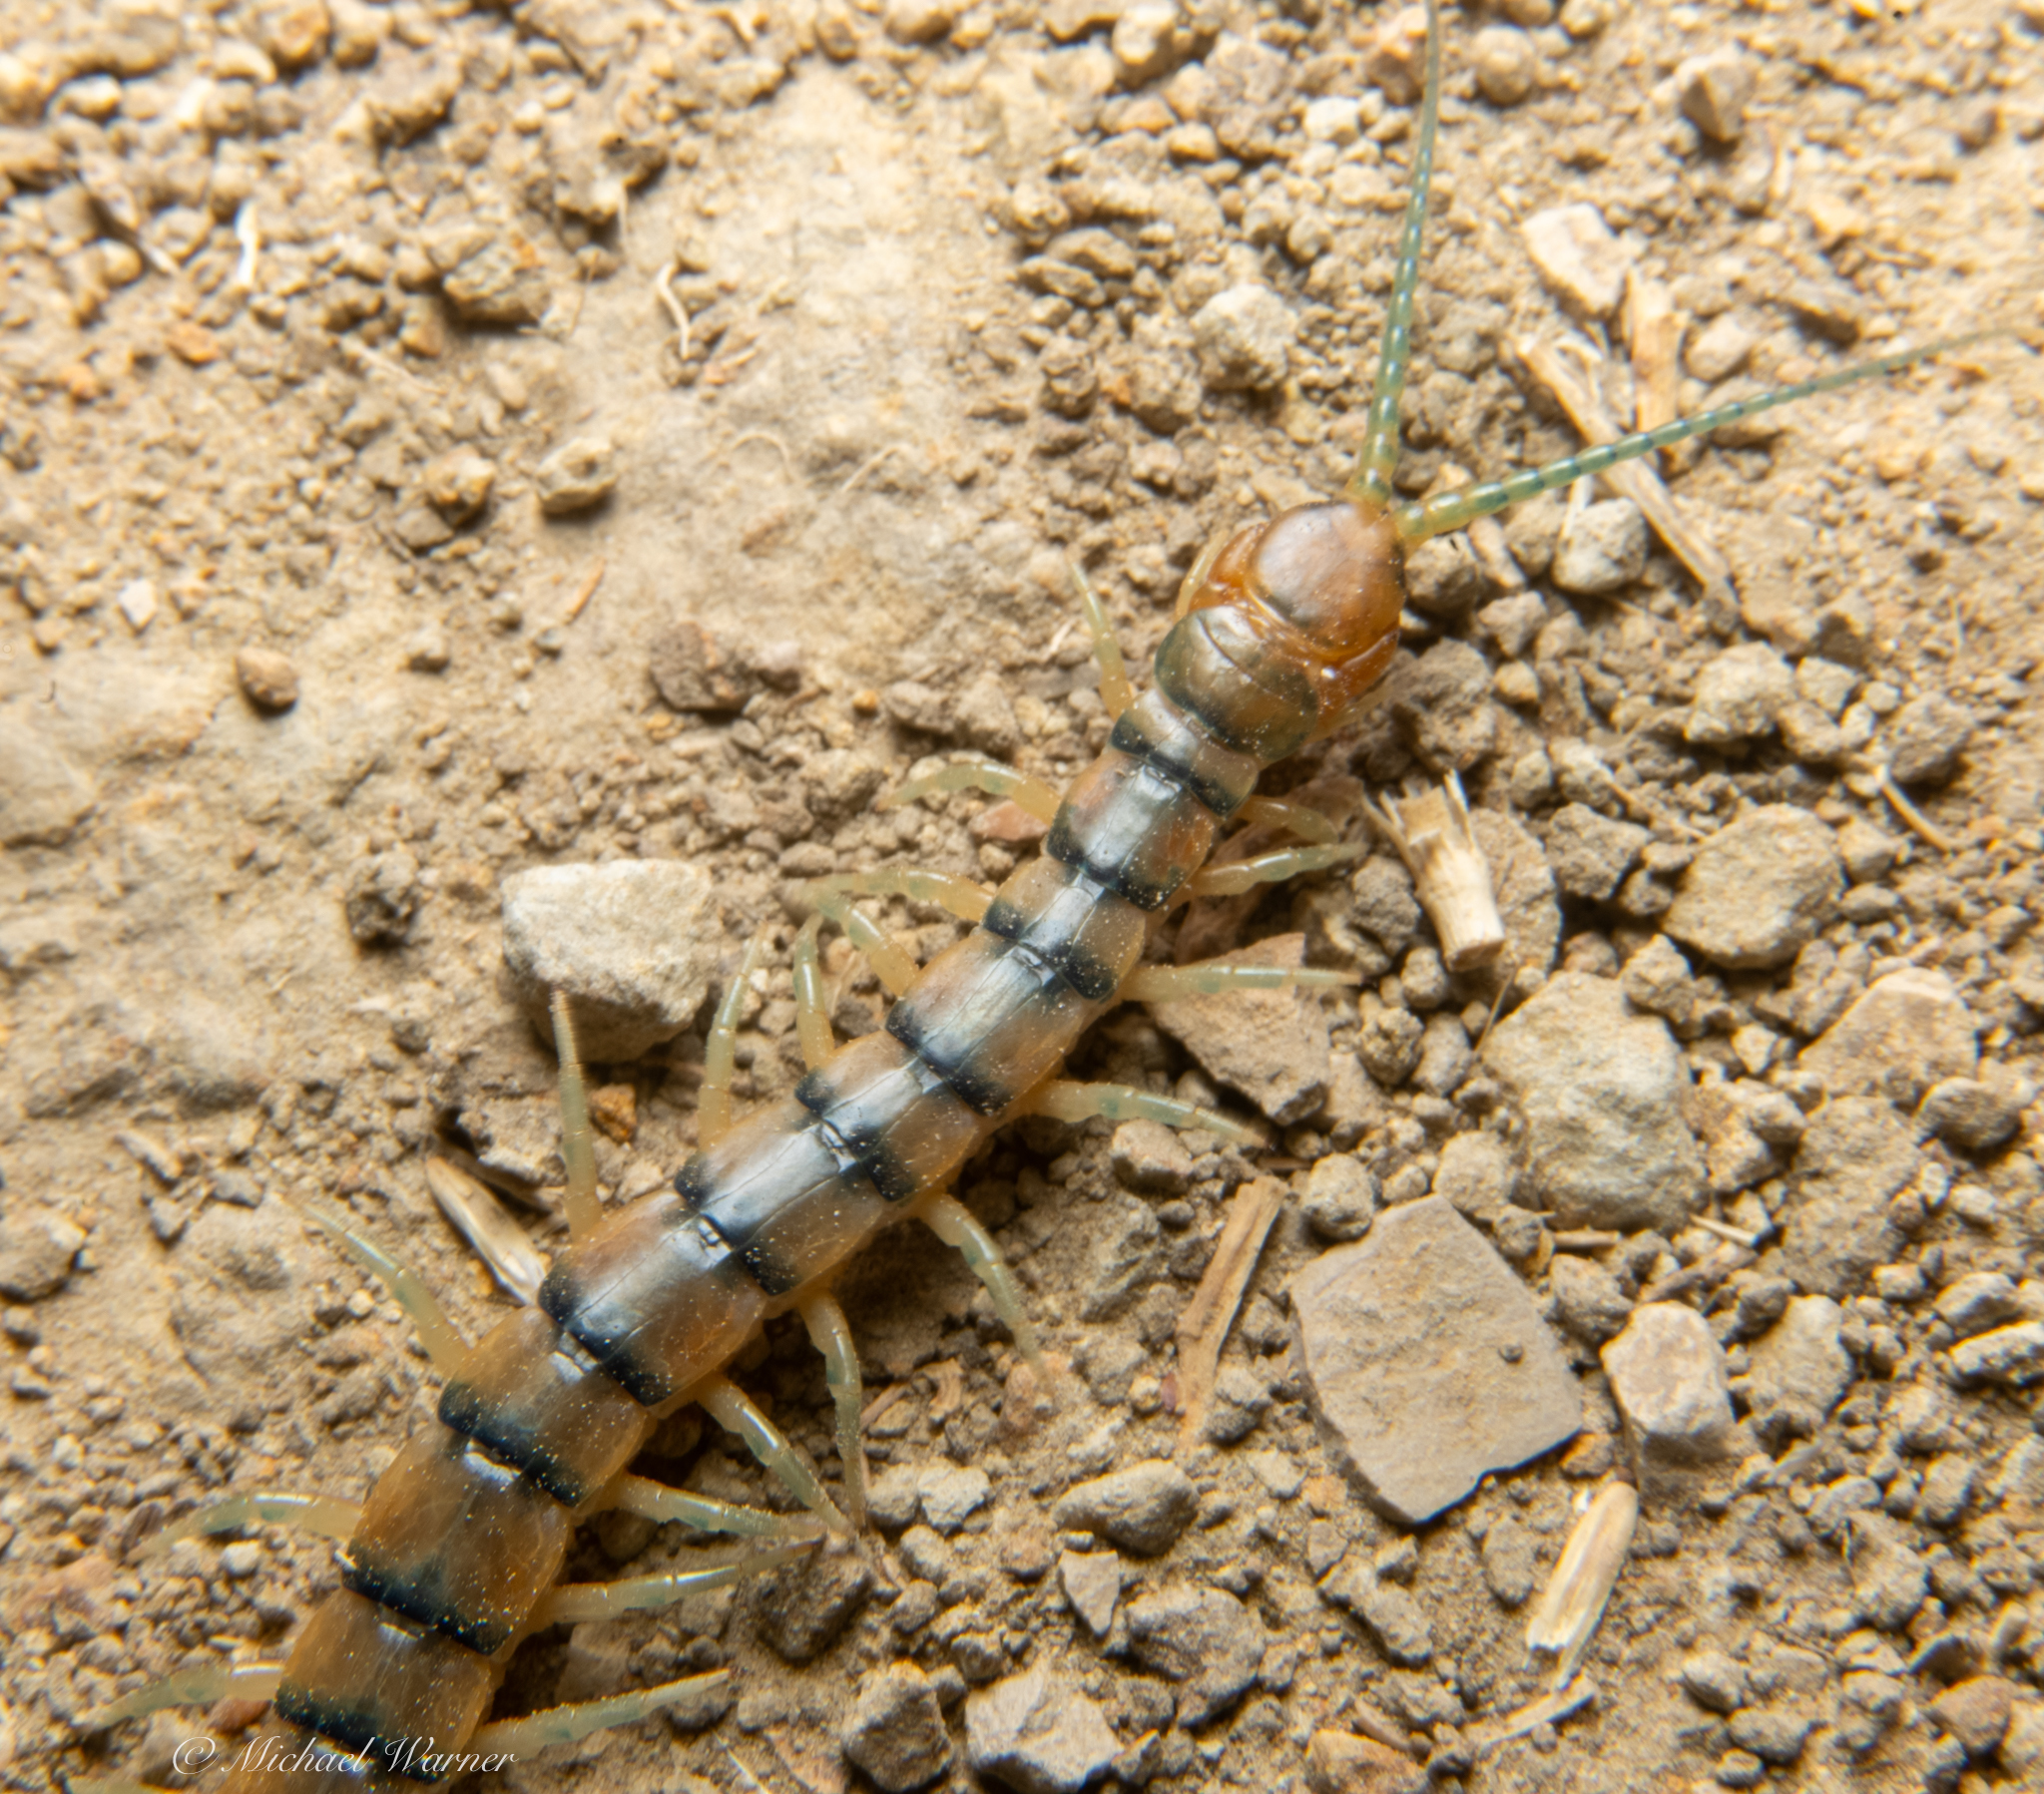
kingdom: Animalia
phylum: Arthropoda
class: Chilopoda
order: Scolopendromorpha
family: Scolopendridae
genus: Scolopendra
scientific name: Scolopendra polymorpha
